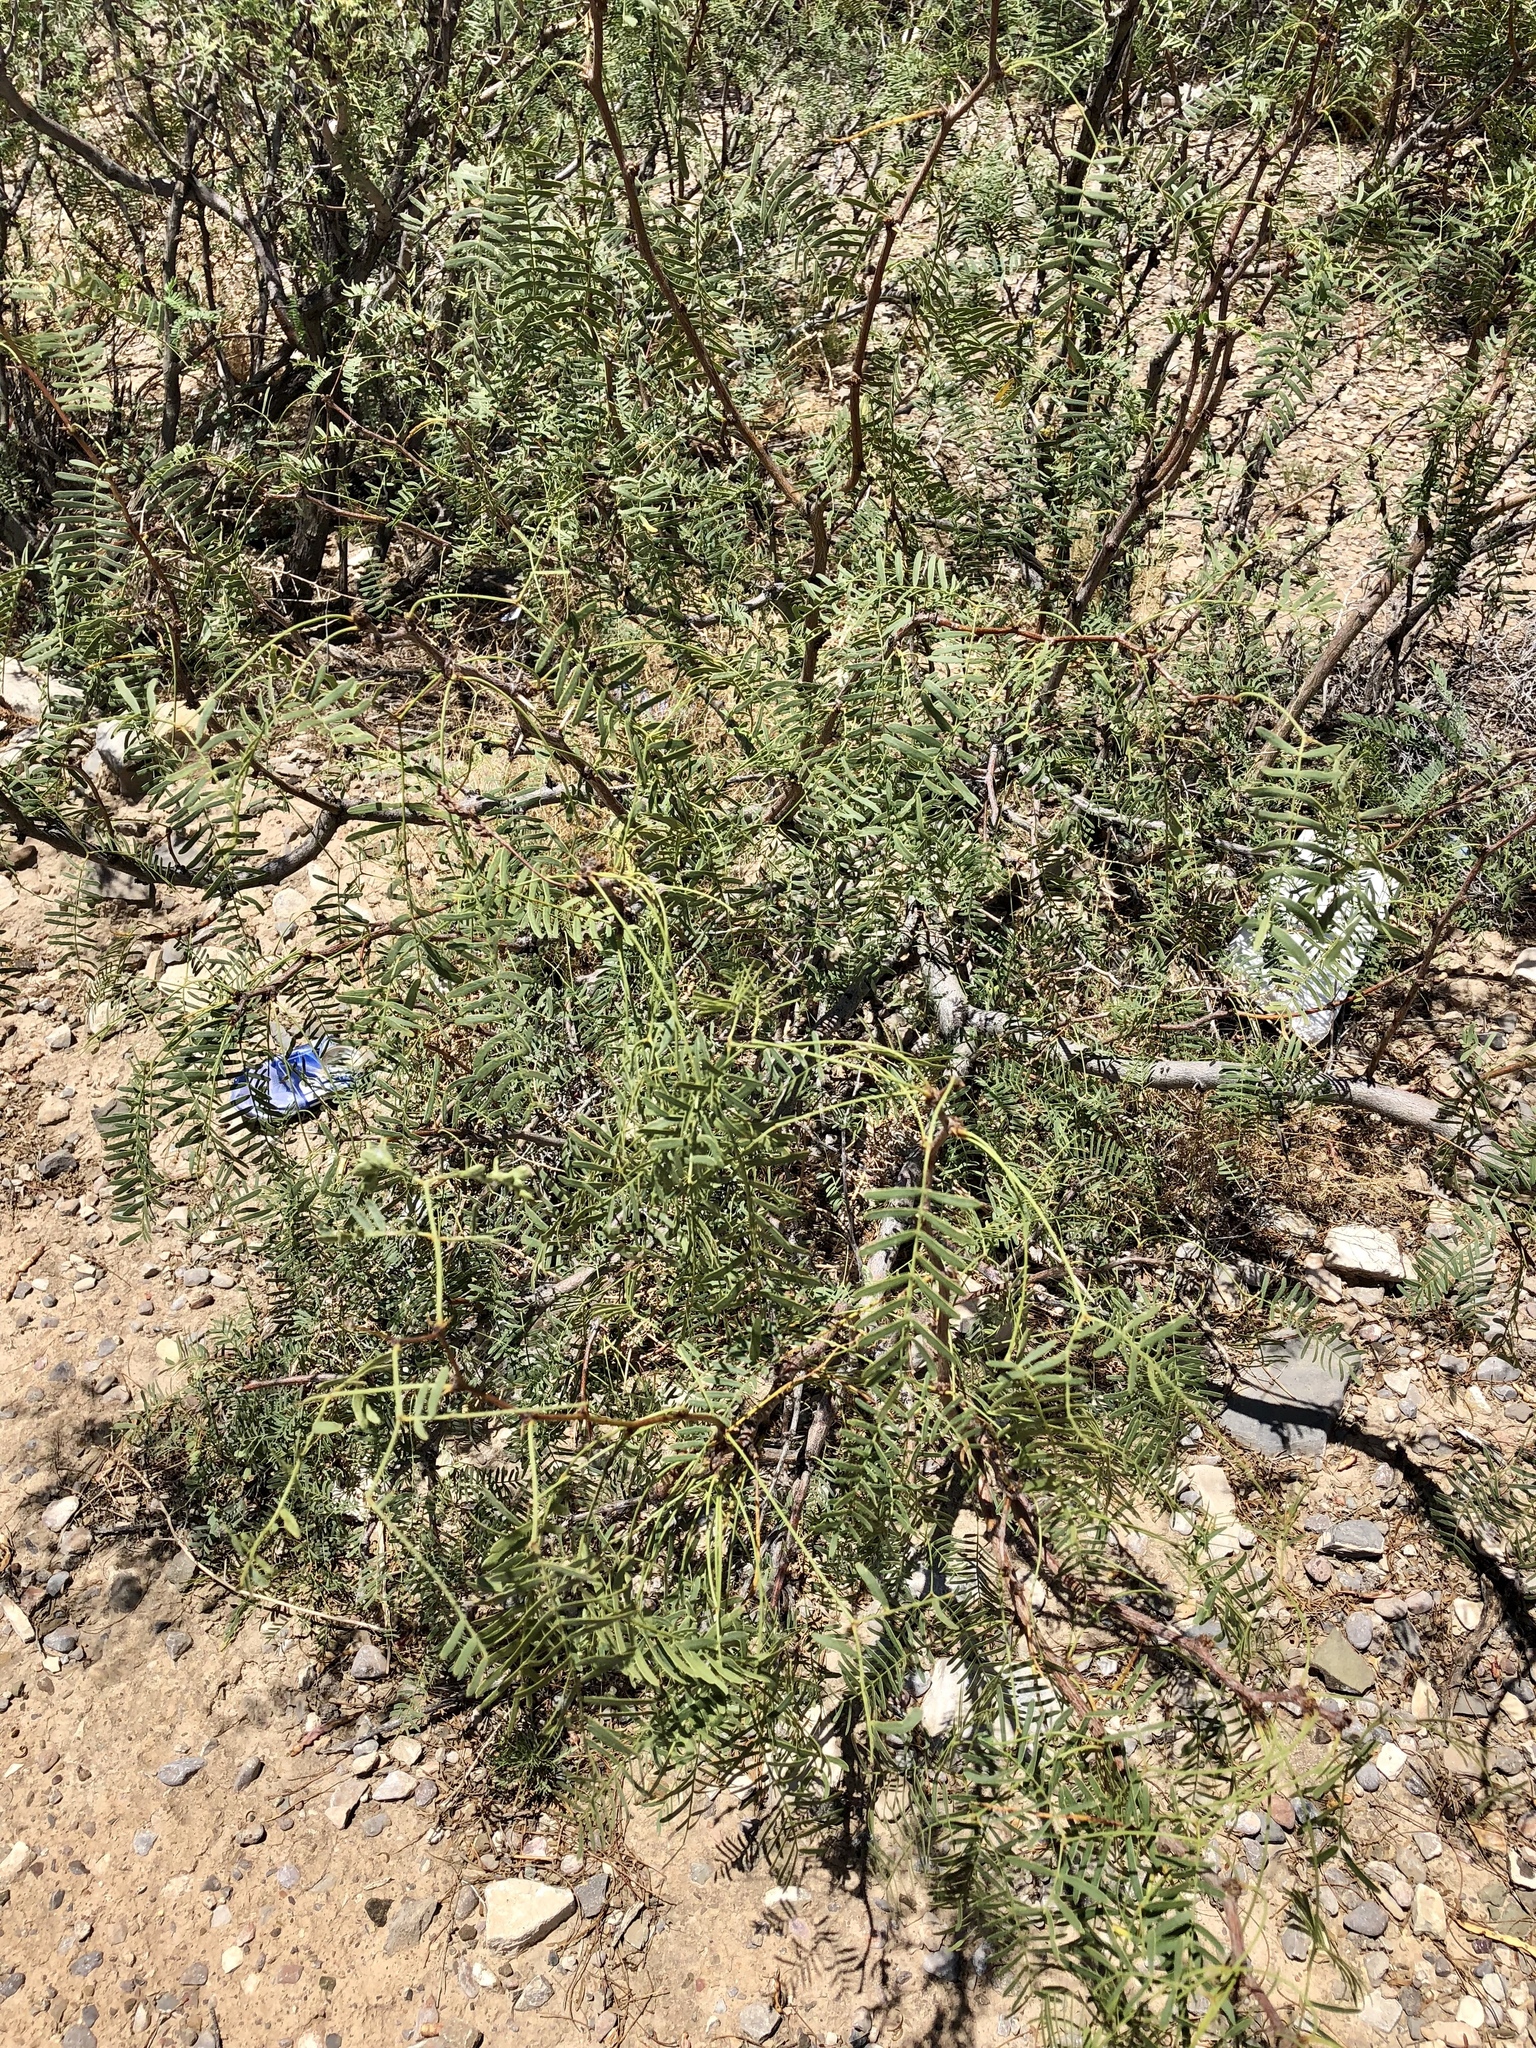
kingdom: Plantae
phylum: Tracheophyta
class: Magnoliopsida
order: Fabales
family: Fabaceae
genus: Prosopis
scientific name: Prosopis glandulosa
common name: Honey mesquite
